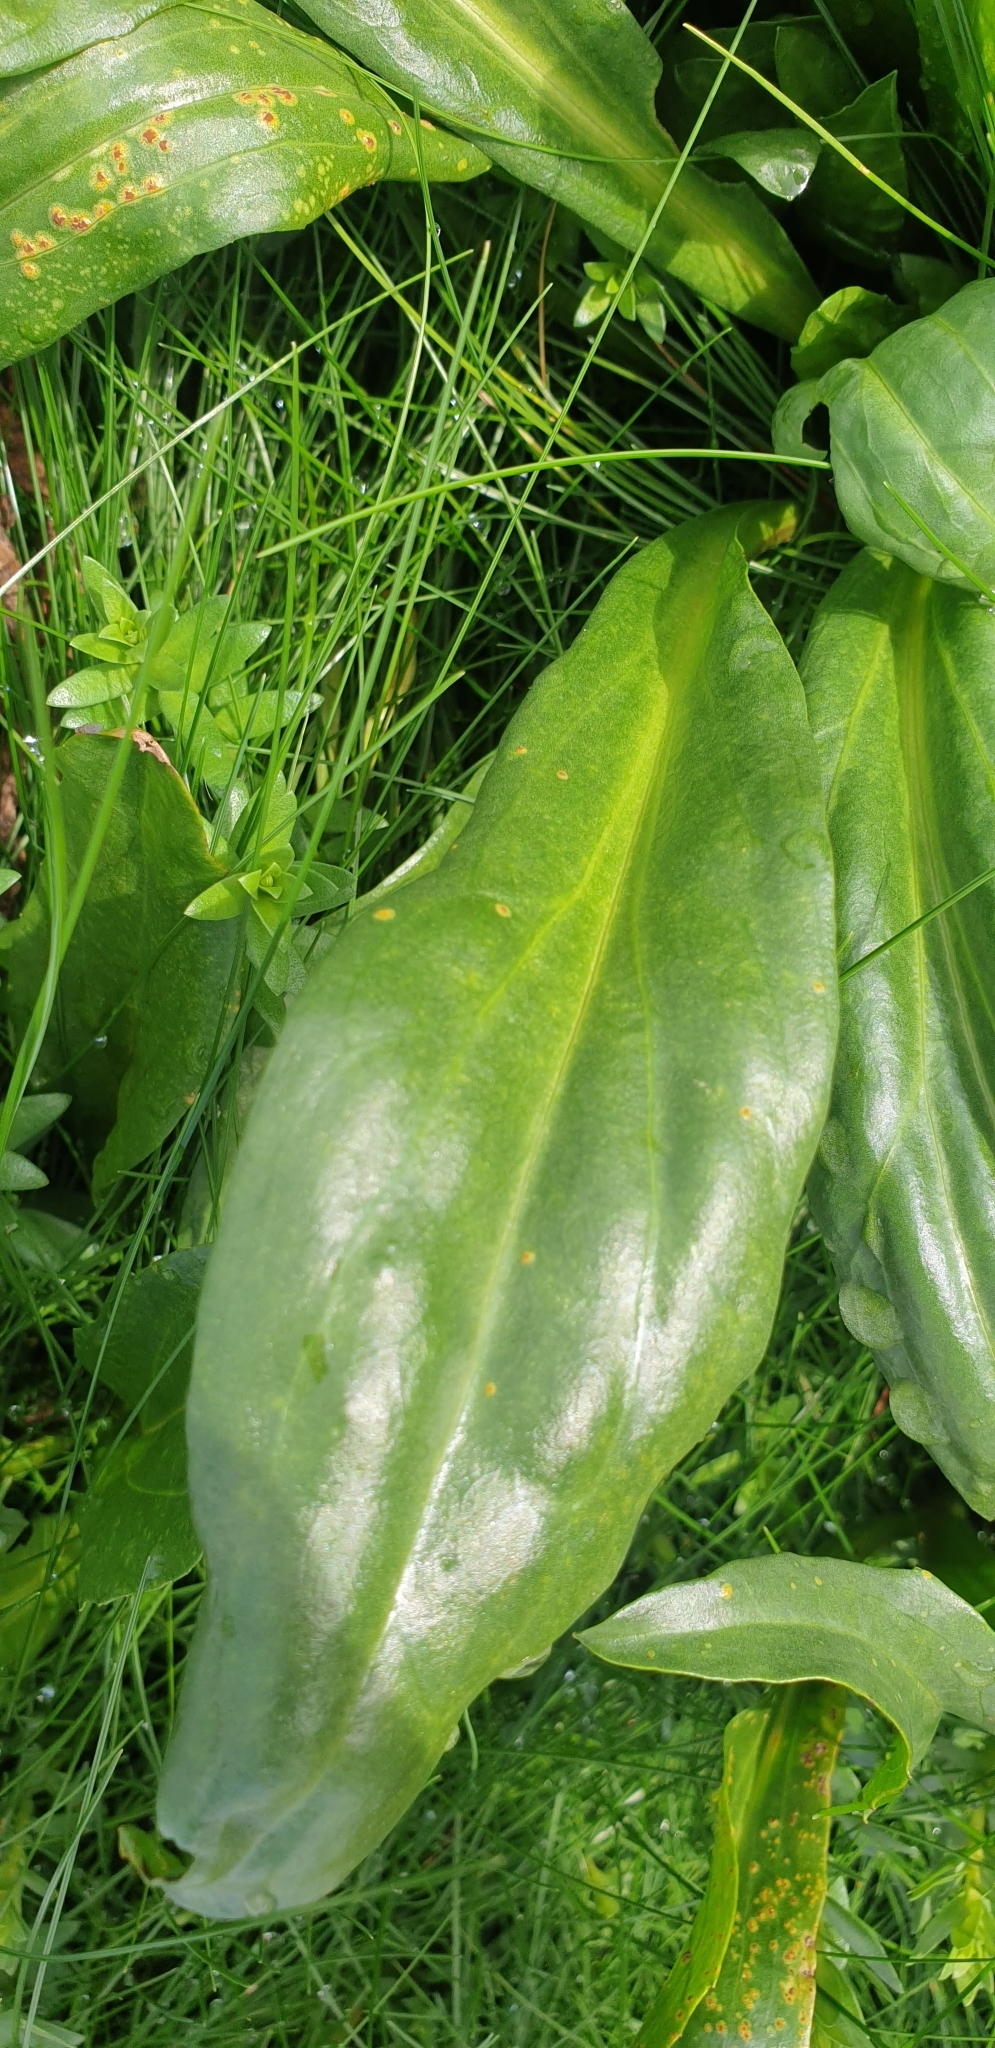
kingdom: Plantae
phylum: Tracheophyta
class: Magnoliopsida
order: Asterales
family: Asteraceae
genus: Tripolium
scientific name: Tripolium pannonicum
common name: Sea aster
